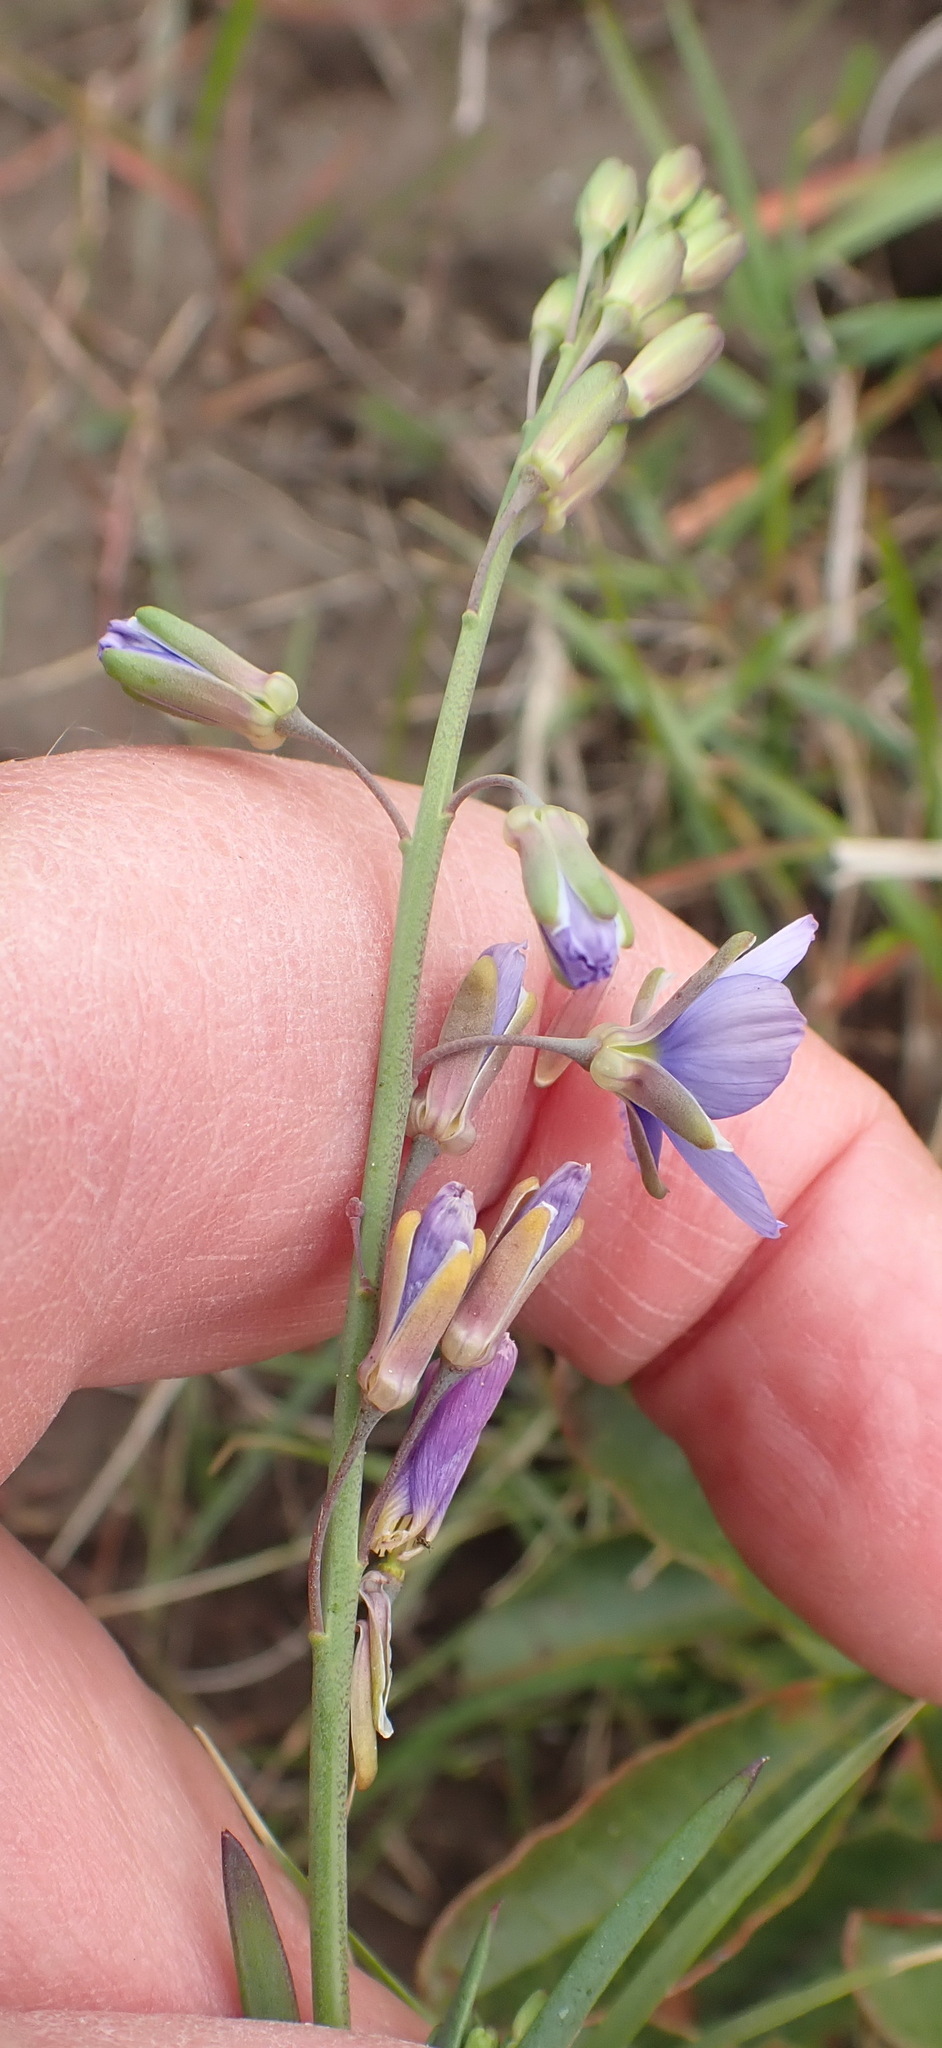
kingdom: Plantae
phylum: Tracheophyta
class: Magnoliopsida
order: Brassicales
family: Brassicaceae
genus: Heliophila
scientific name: Heliophila linearis
